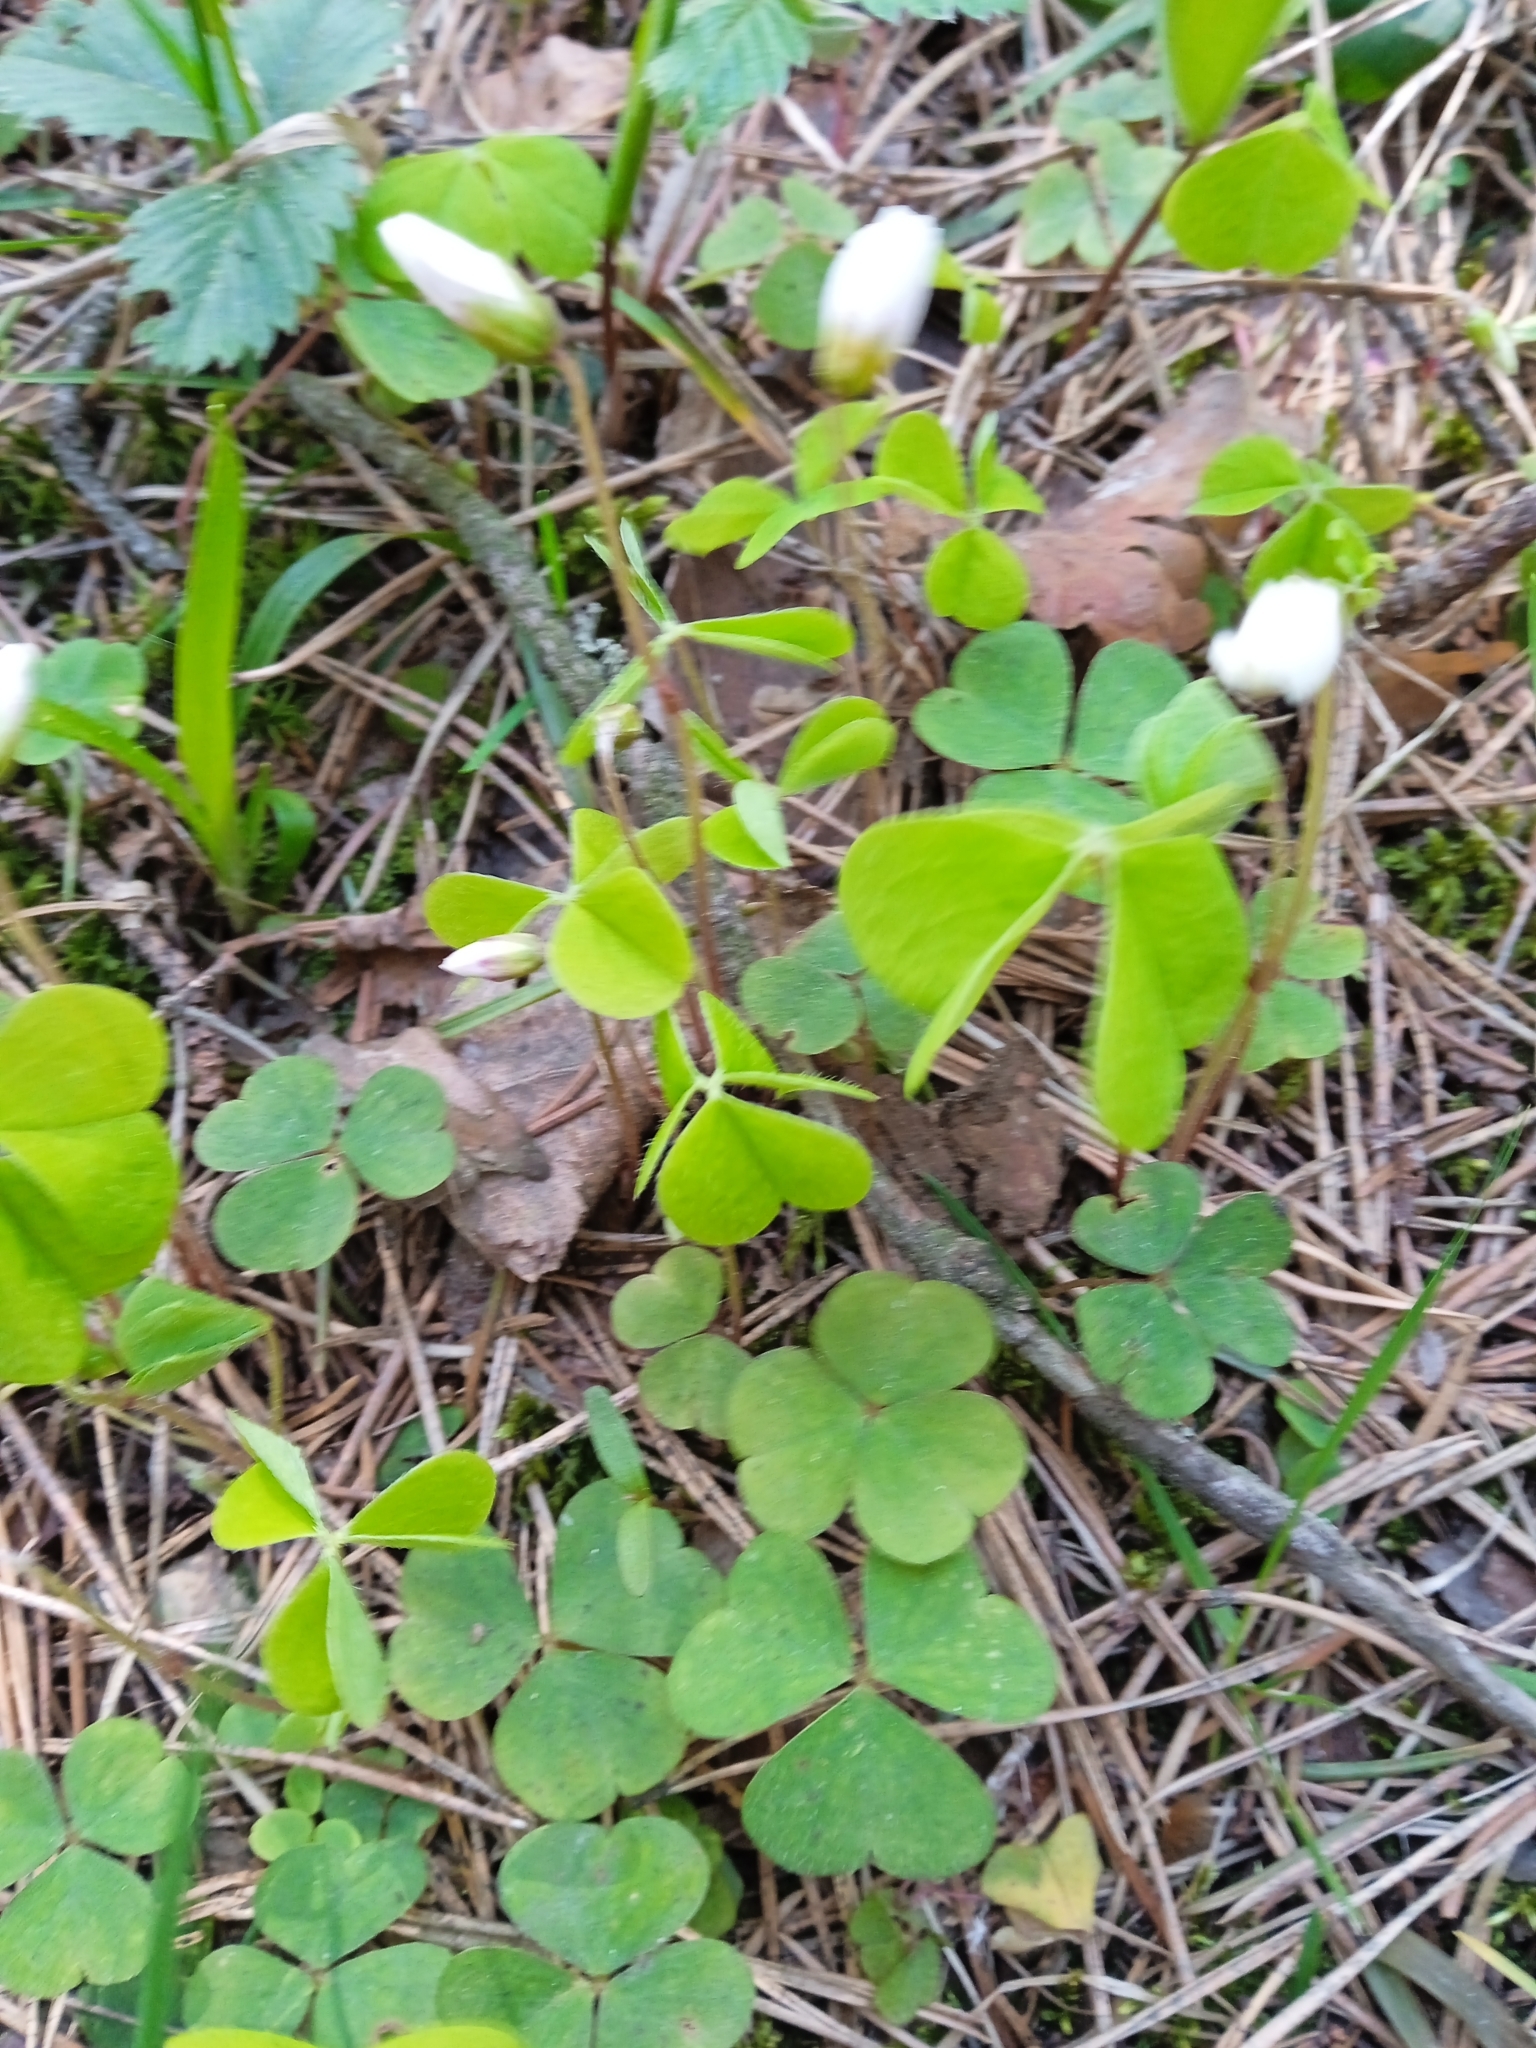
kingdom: Plantae
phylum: Tracheophyta
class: Magnoliopsida
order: Oxalidales
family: Oxalidaceae
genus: Oxalis
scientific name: Oxalis acetosella
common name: Wood-sorrel
